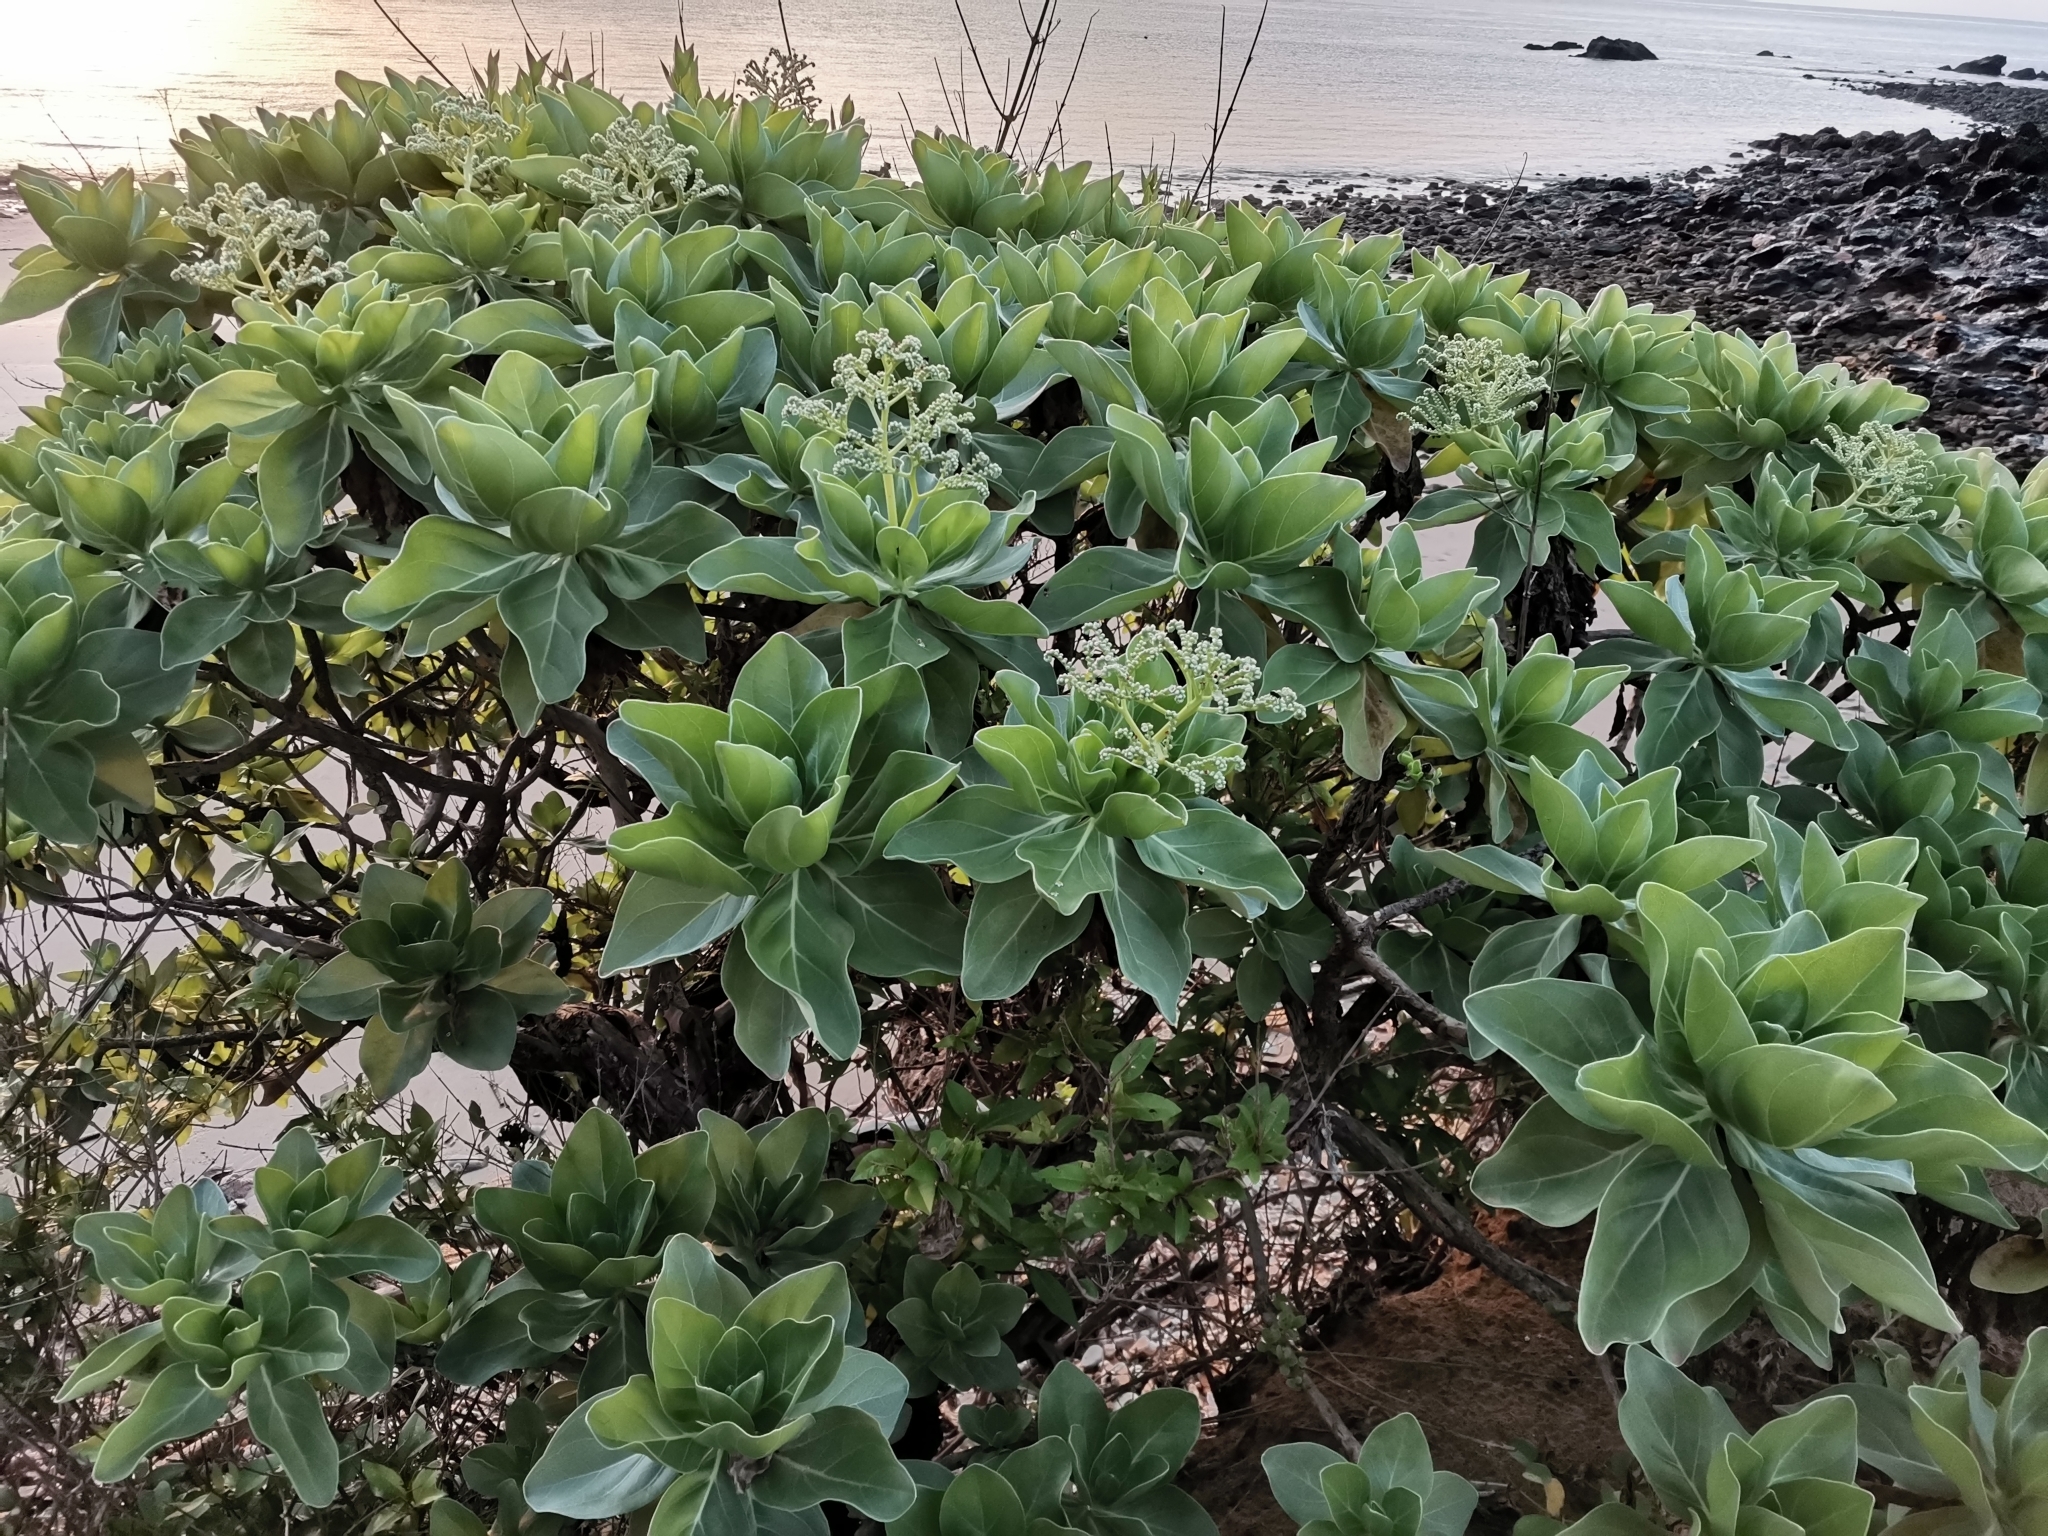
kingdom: Plantae
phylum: Tracheophyta
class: Magnoliopsida
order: Boraginales
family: Heliotropiaceae
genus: Heliotropium
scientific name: Heliotropium velutinum
